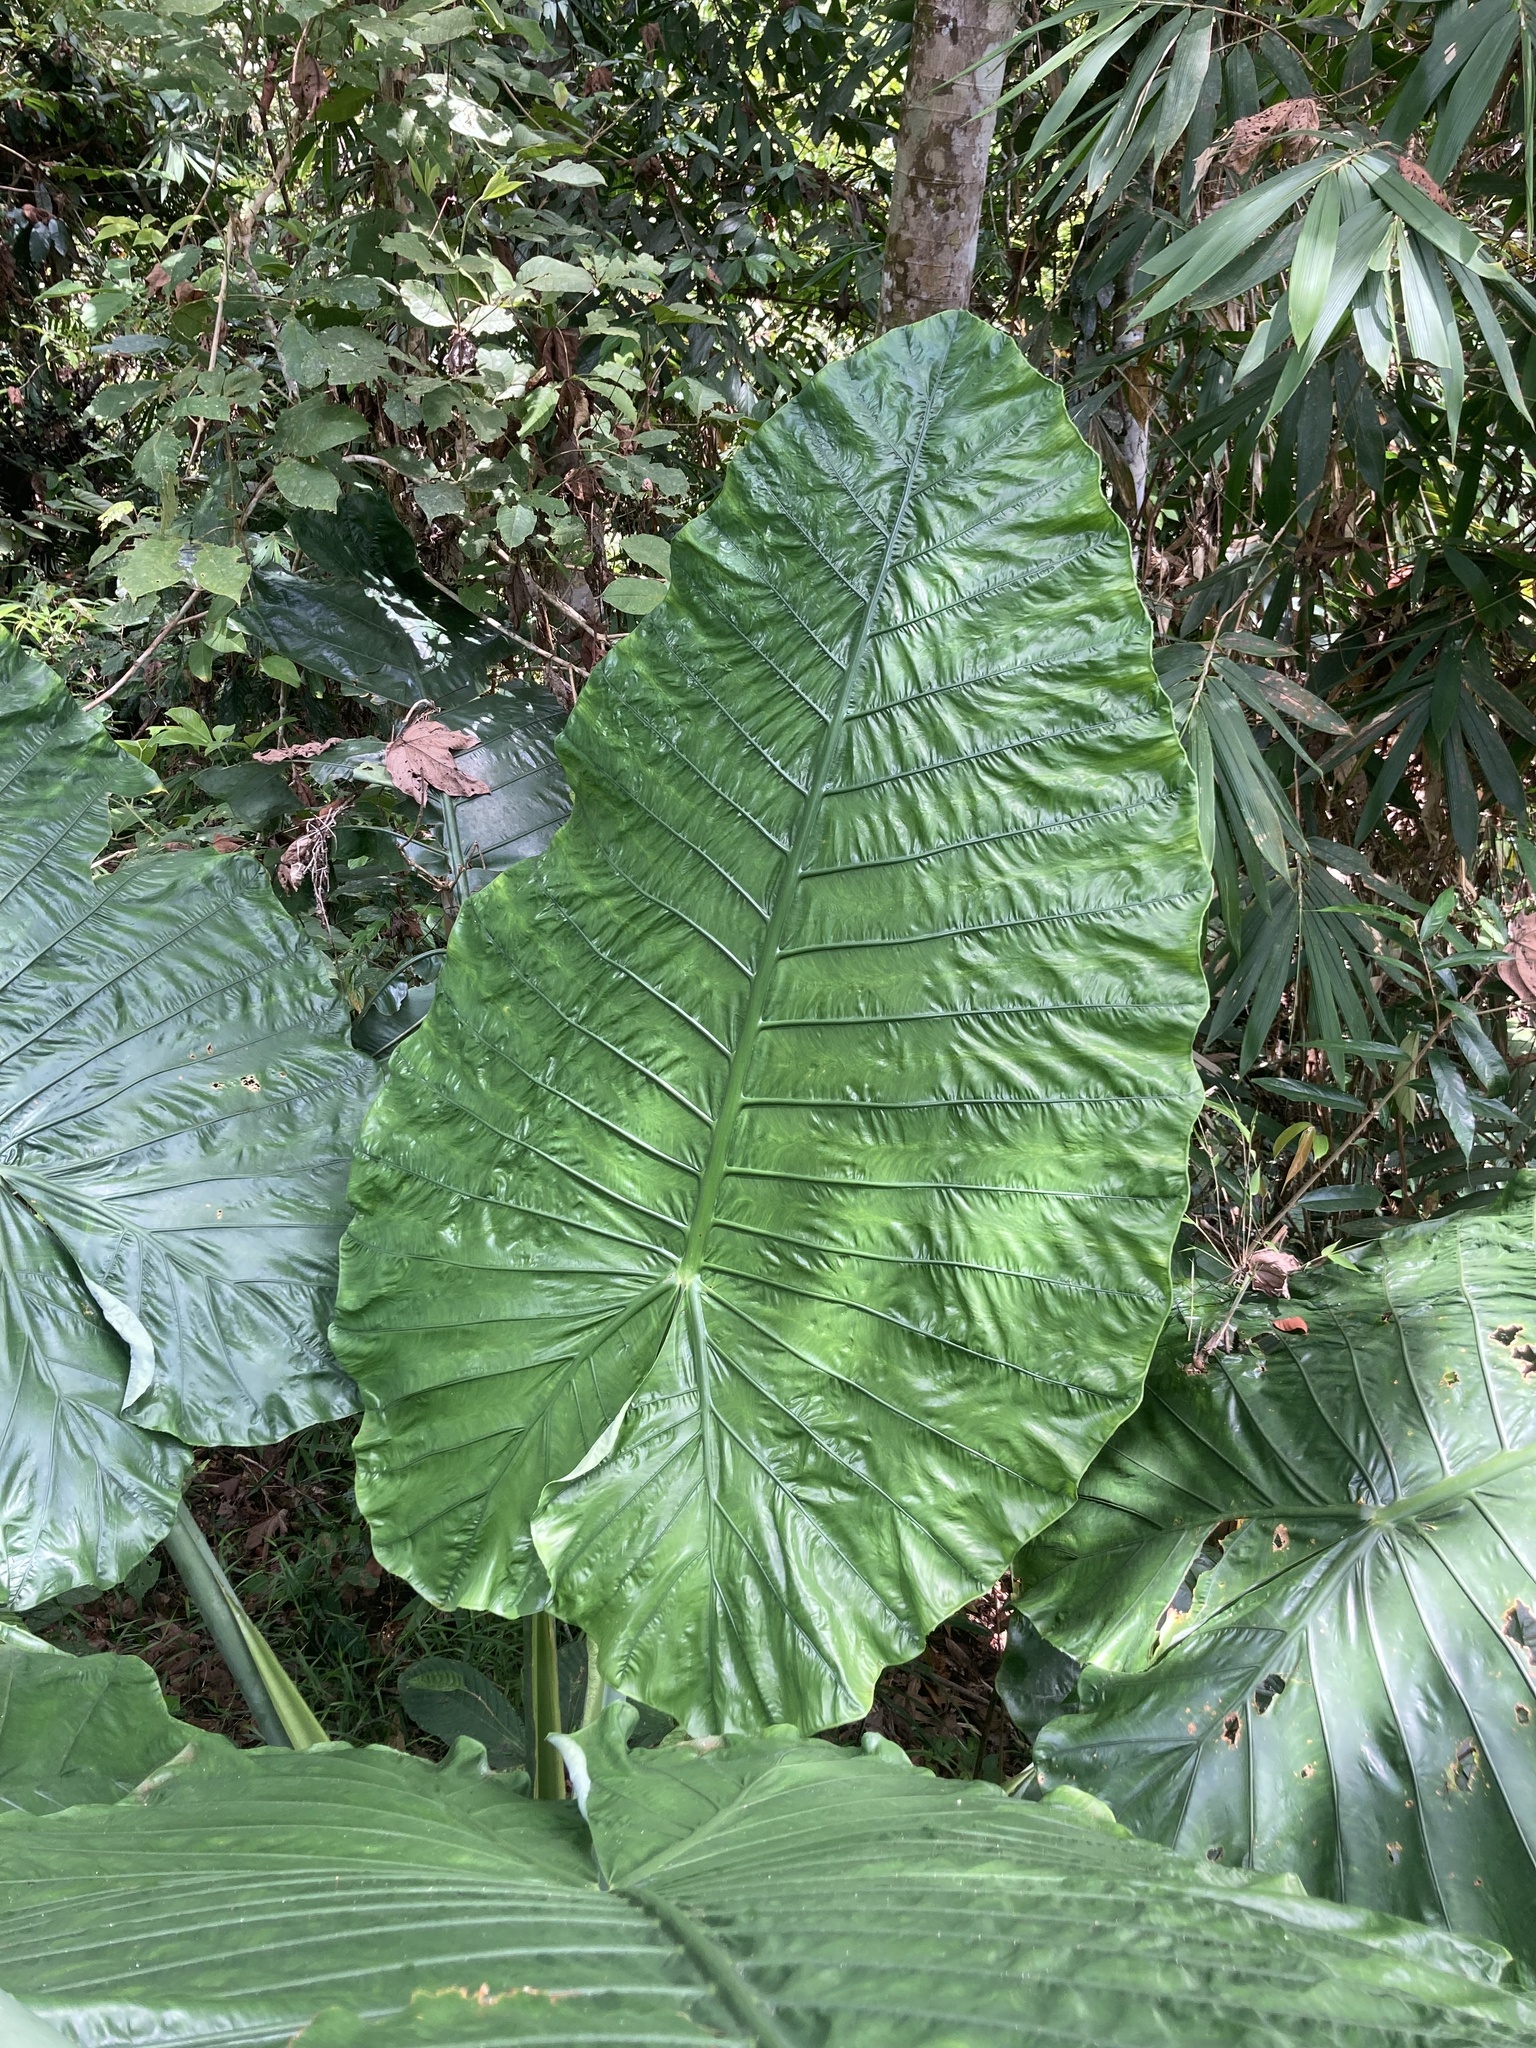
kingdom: Plantae
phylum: Tracheophyta
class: Liliopsida
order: Alismatales
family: Araceae
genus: Alocasia
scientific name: Alocasia robusta
